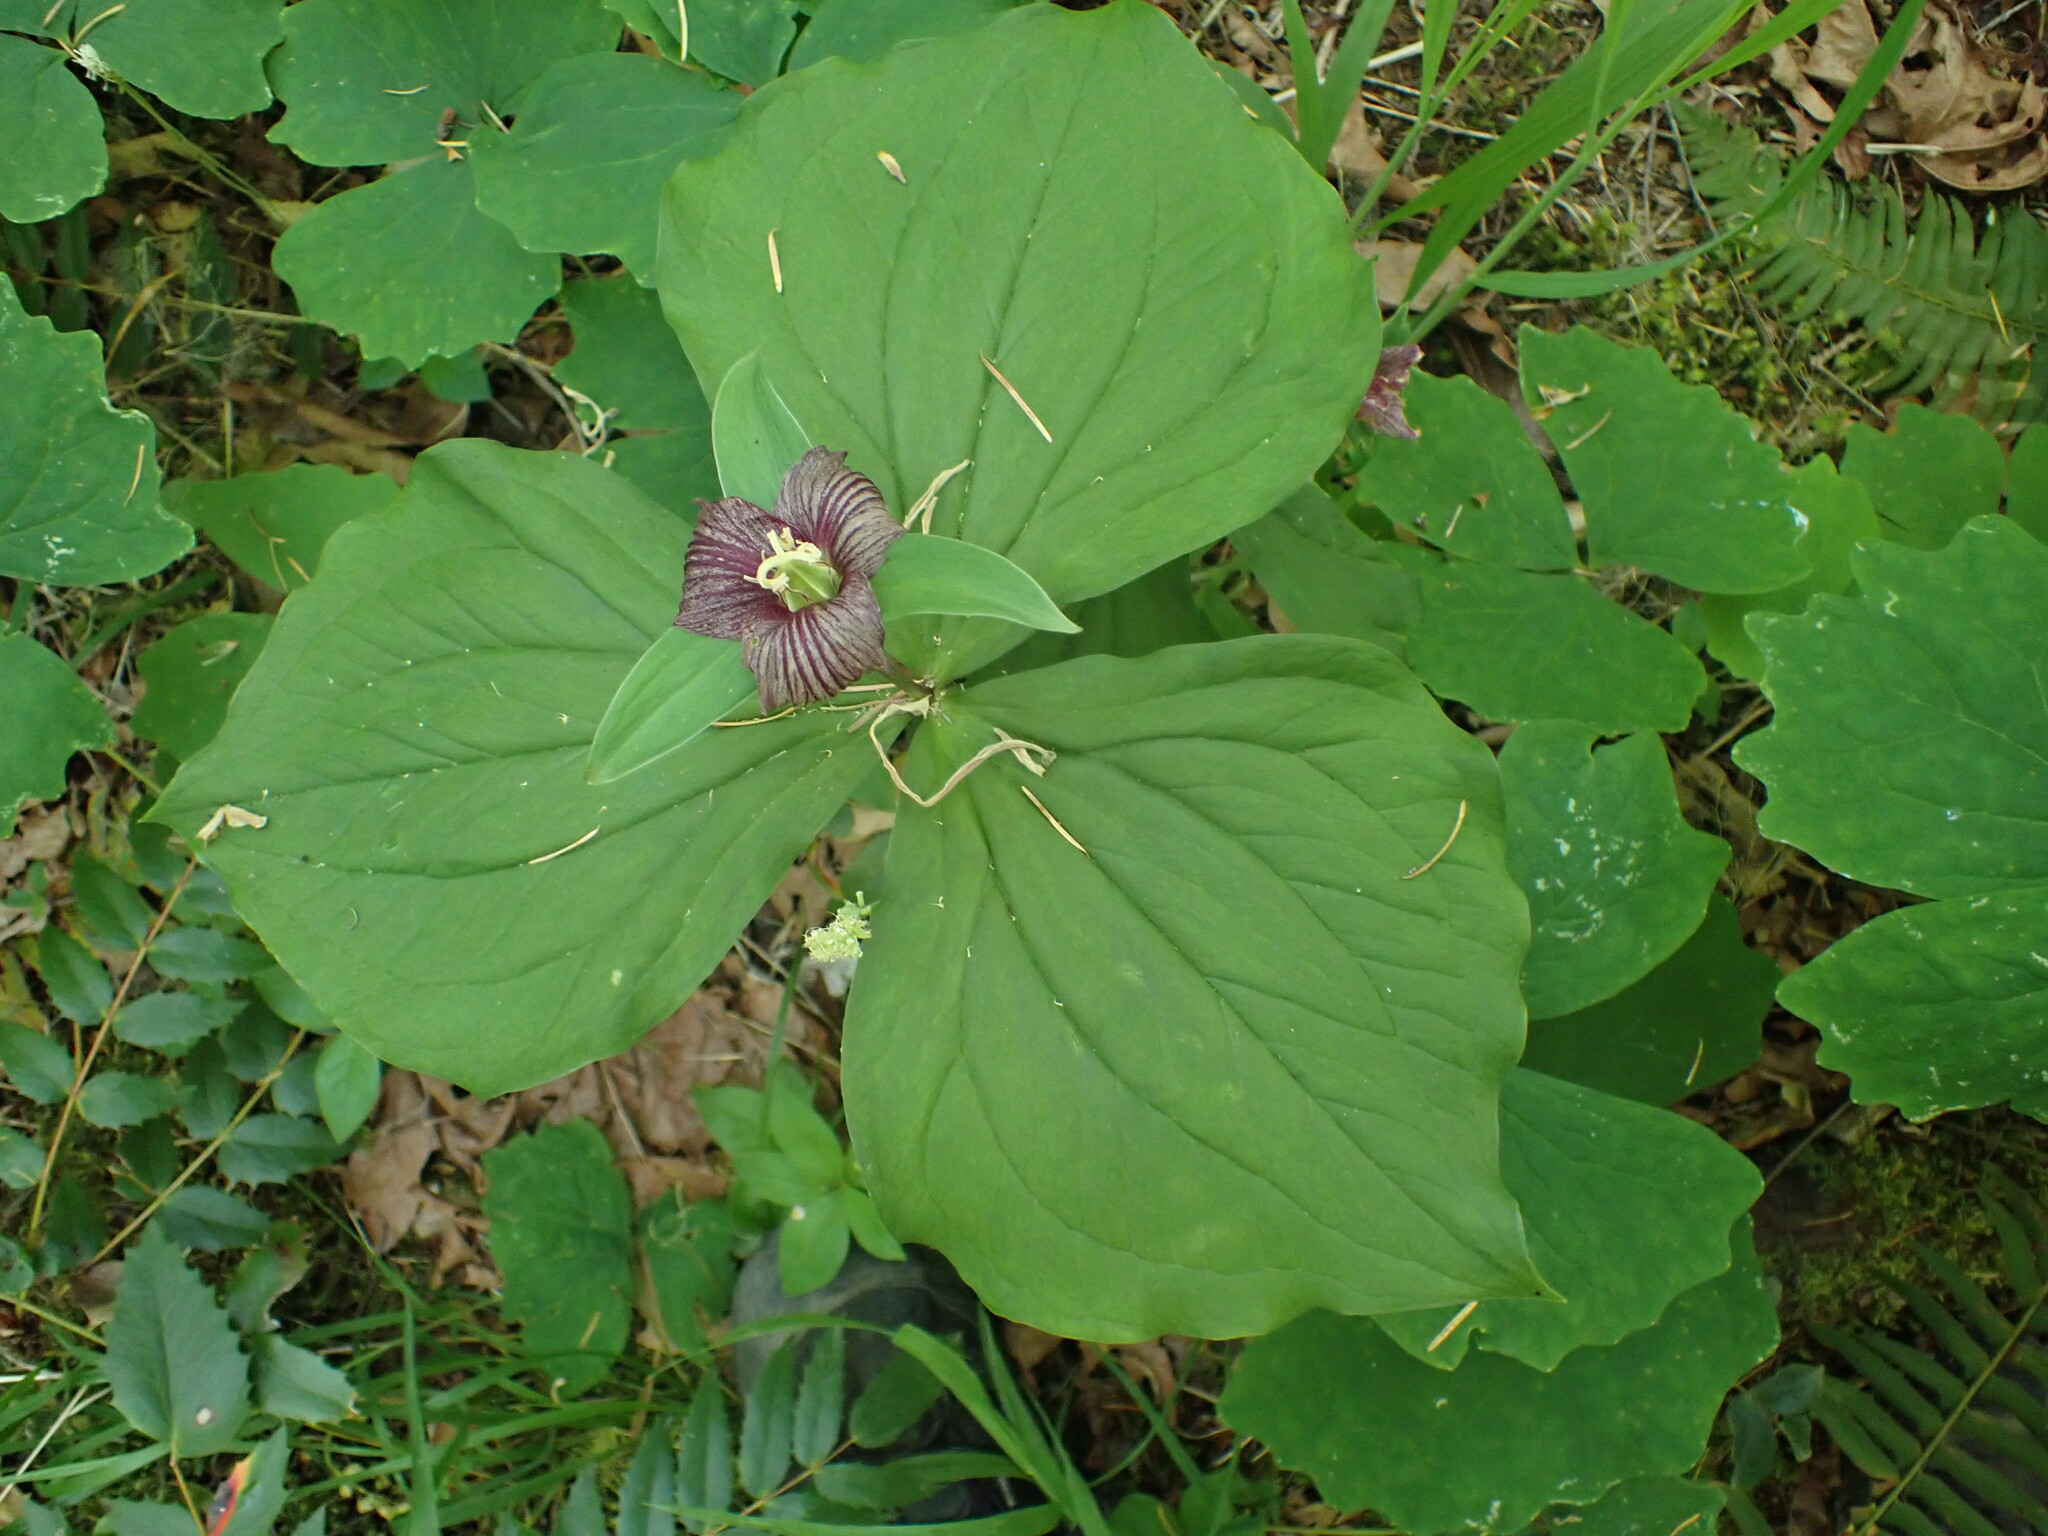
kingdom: Plantae
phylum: Tracheophyta
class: Liliopsida
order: Liliales
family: Melanthiaceae
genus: Trillium
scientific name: Trillium ovatum
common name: Pacific trillium
